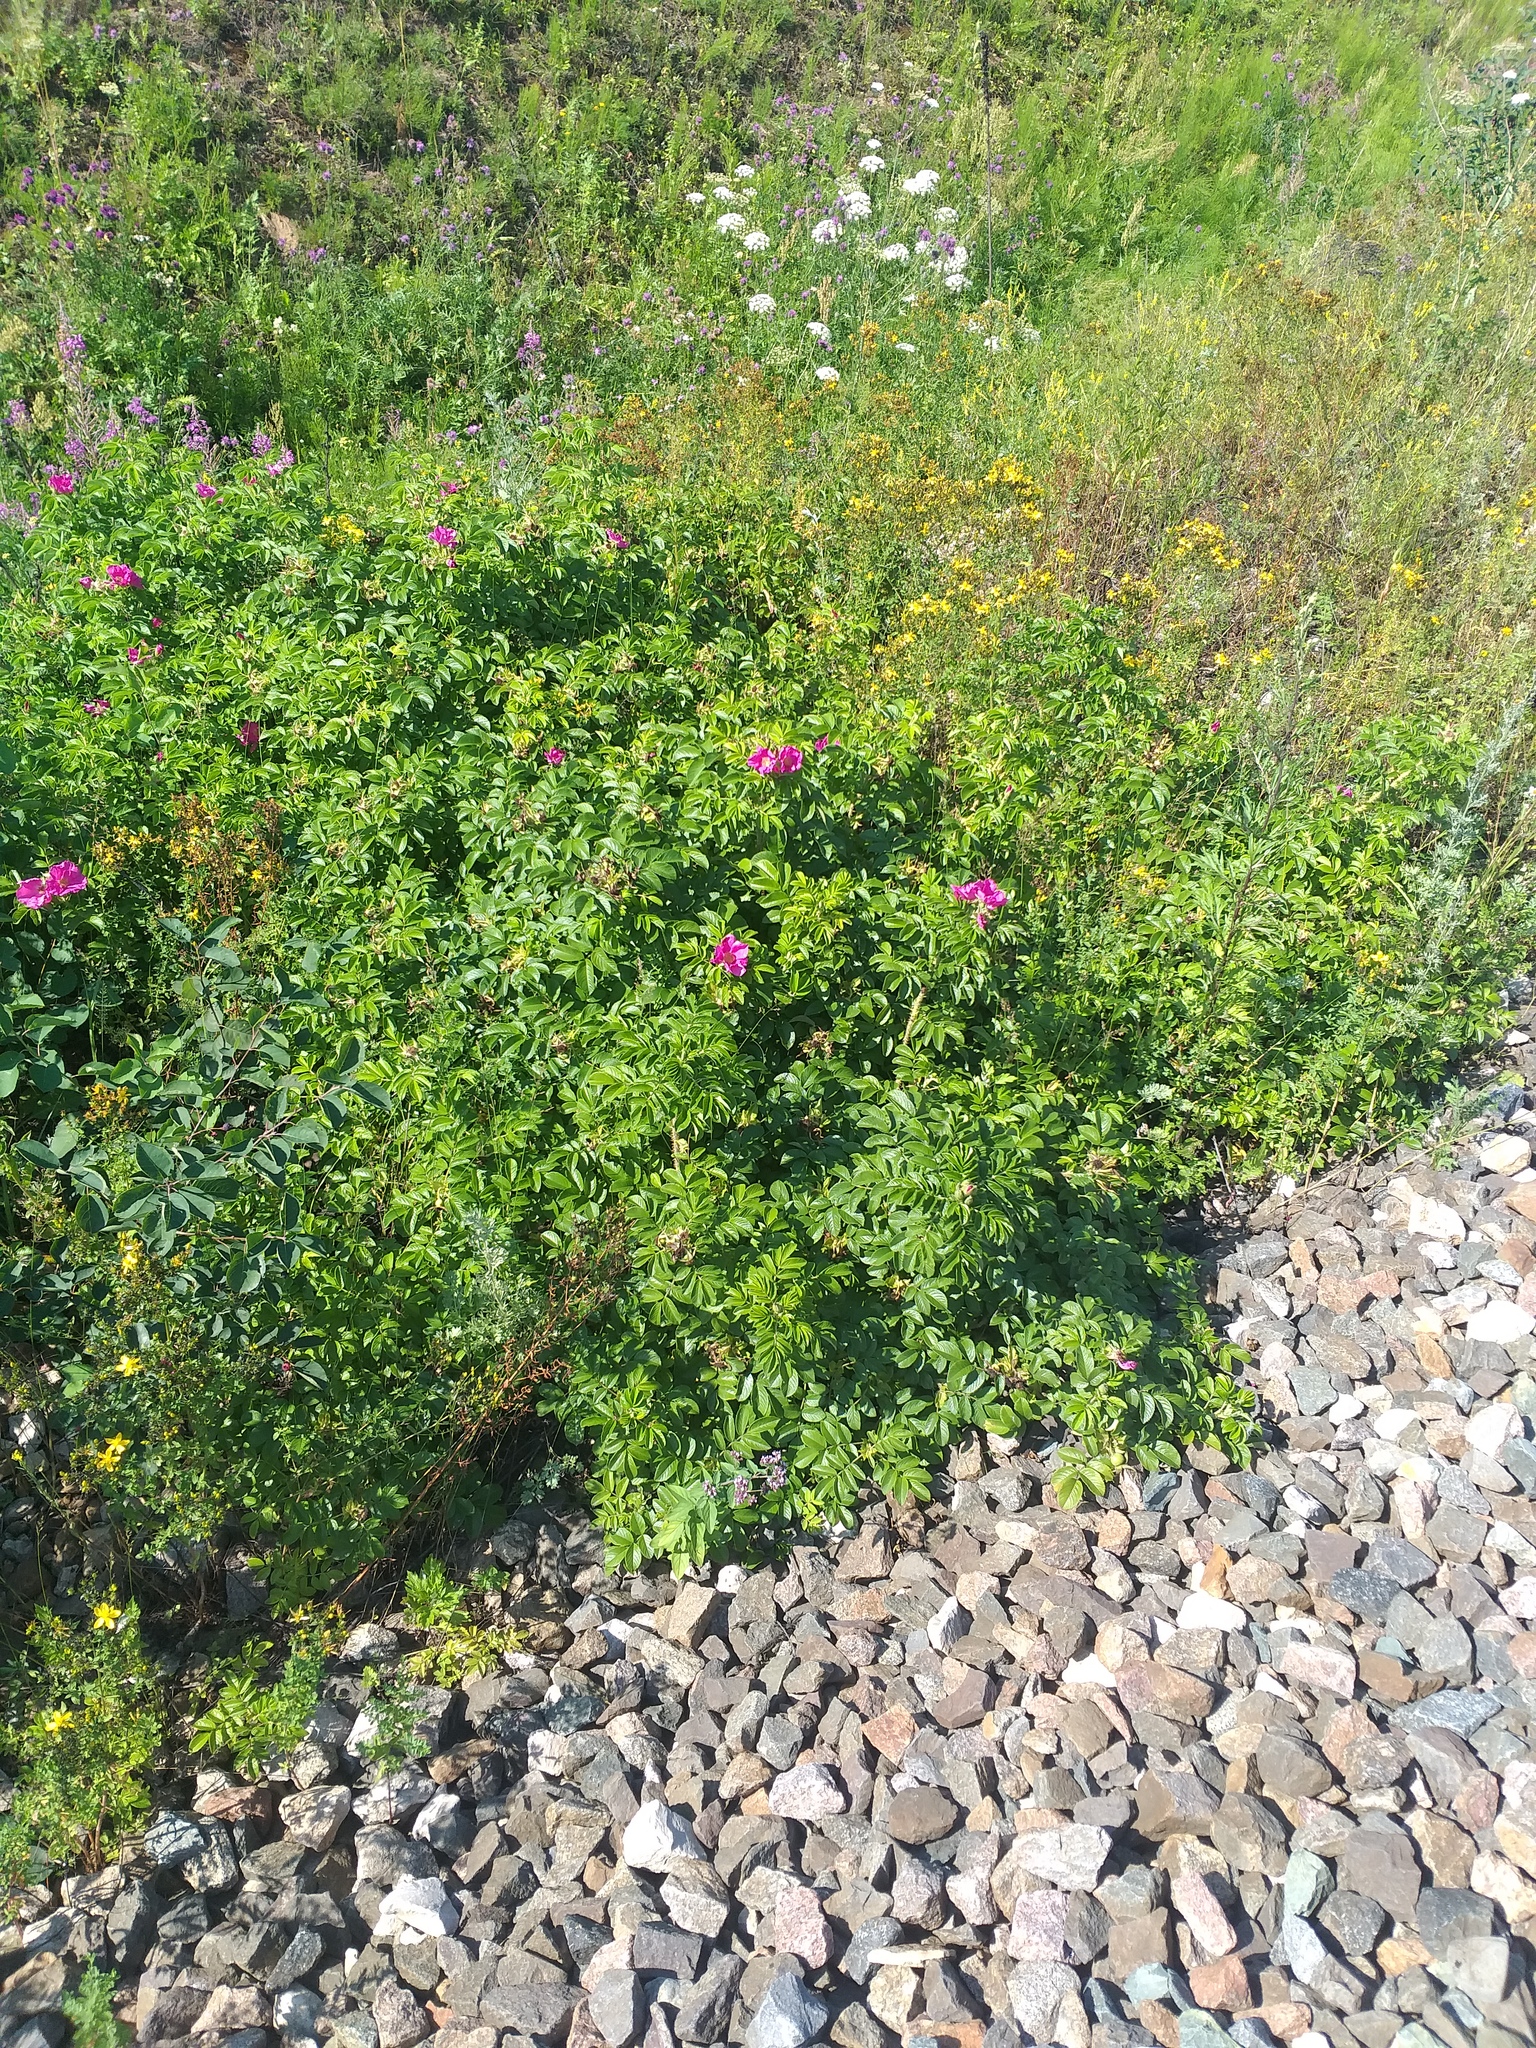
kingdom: Plantae
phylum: Tracheophyta
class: Magnoliopsida
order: Rosales
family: Rosaceae
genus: Rosa
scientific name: Rosa rugosa
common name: Japanese rose
